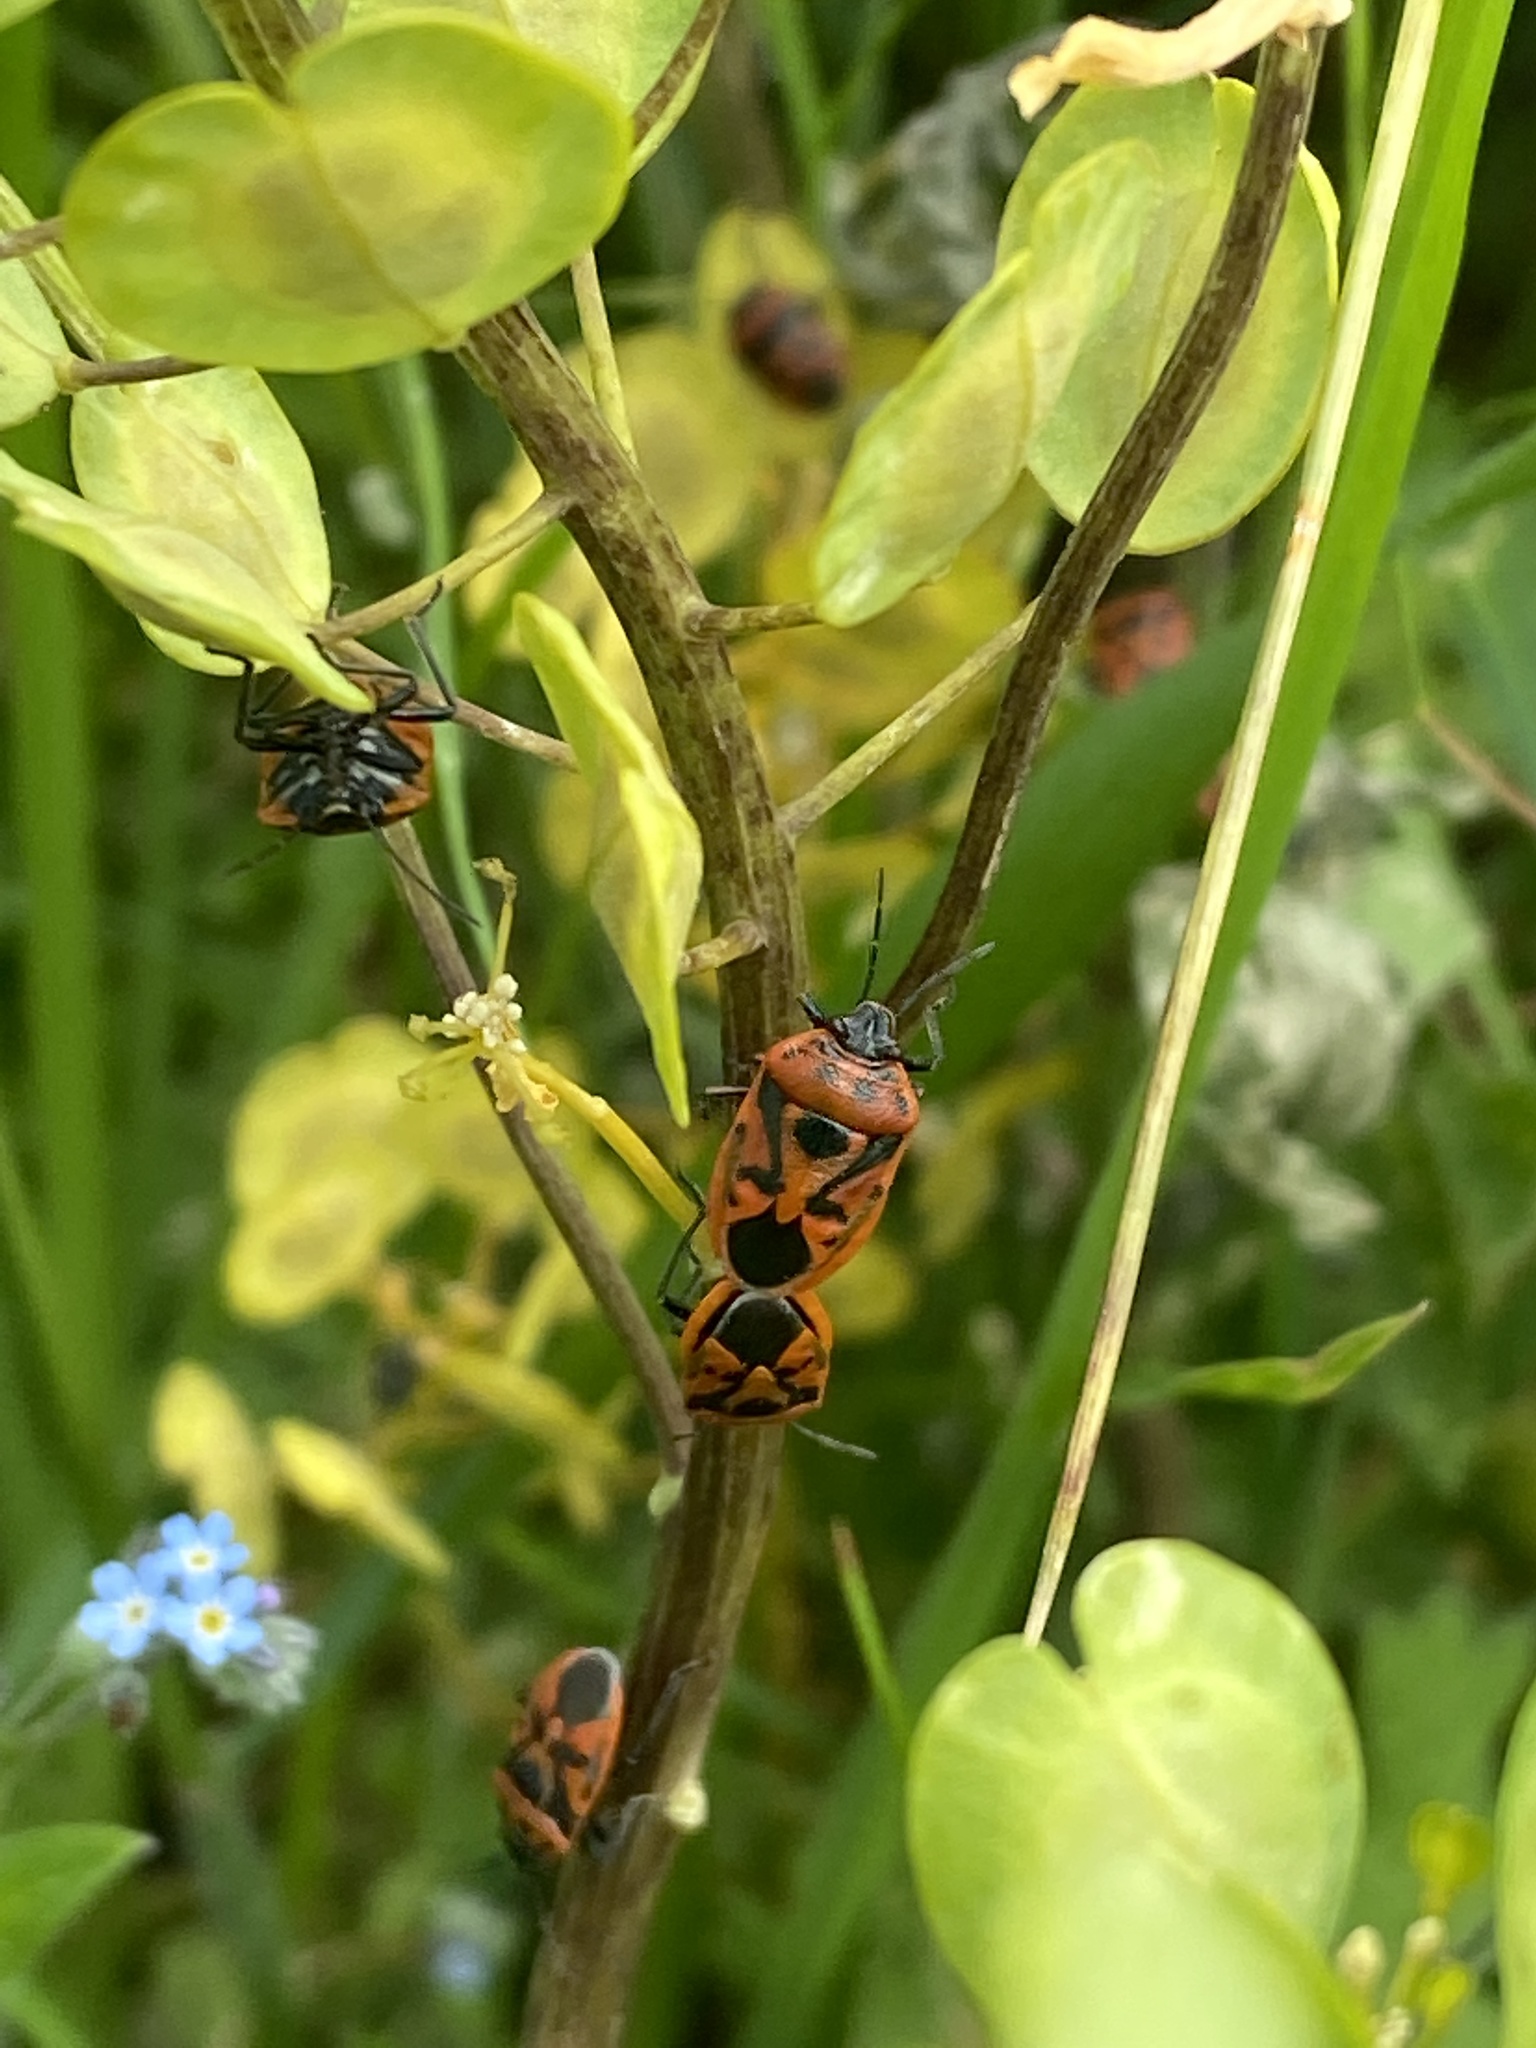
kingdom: Animalia
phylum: Arthropoda
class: Insecta
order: Hemiptera
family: Pentatomidae
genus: Eurydema
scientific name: Eurydema ornata
